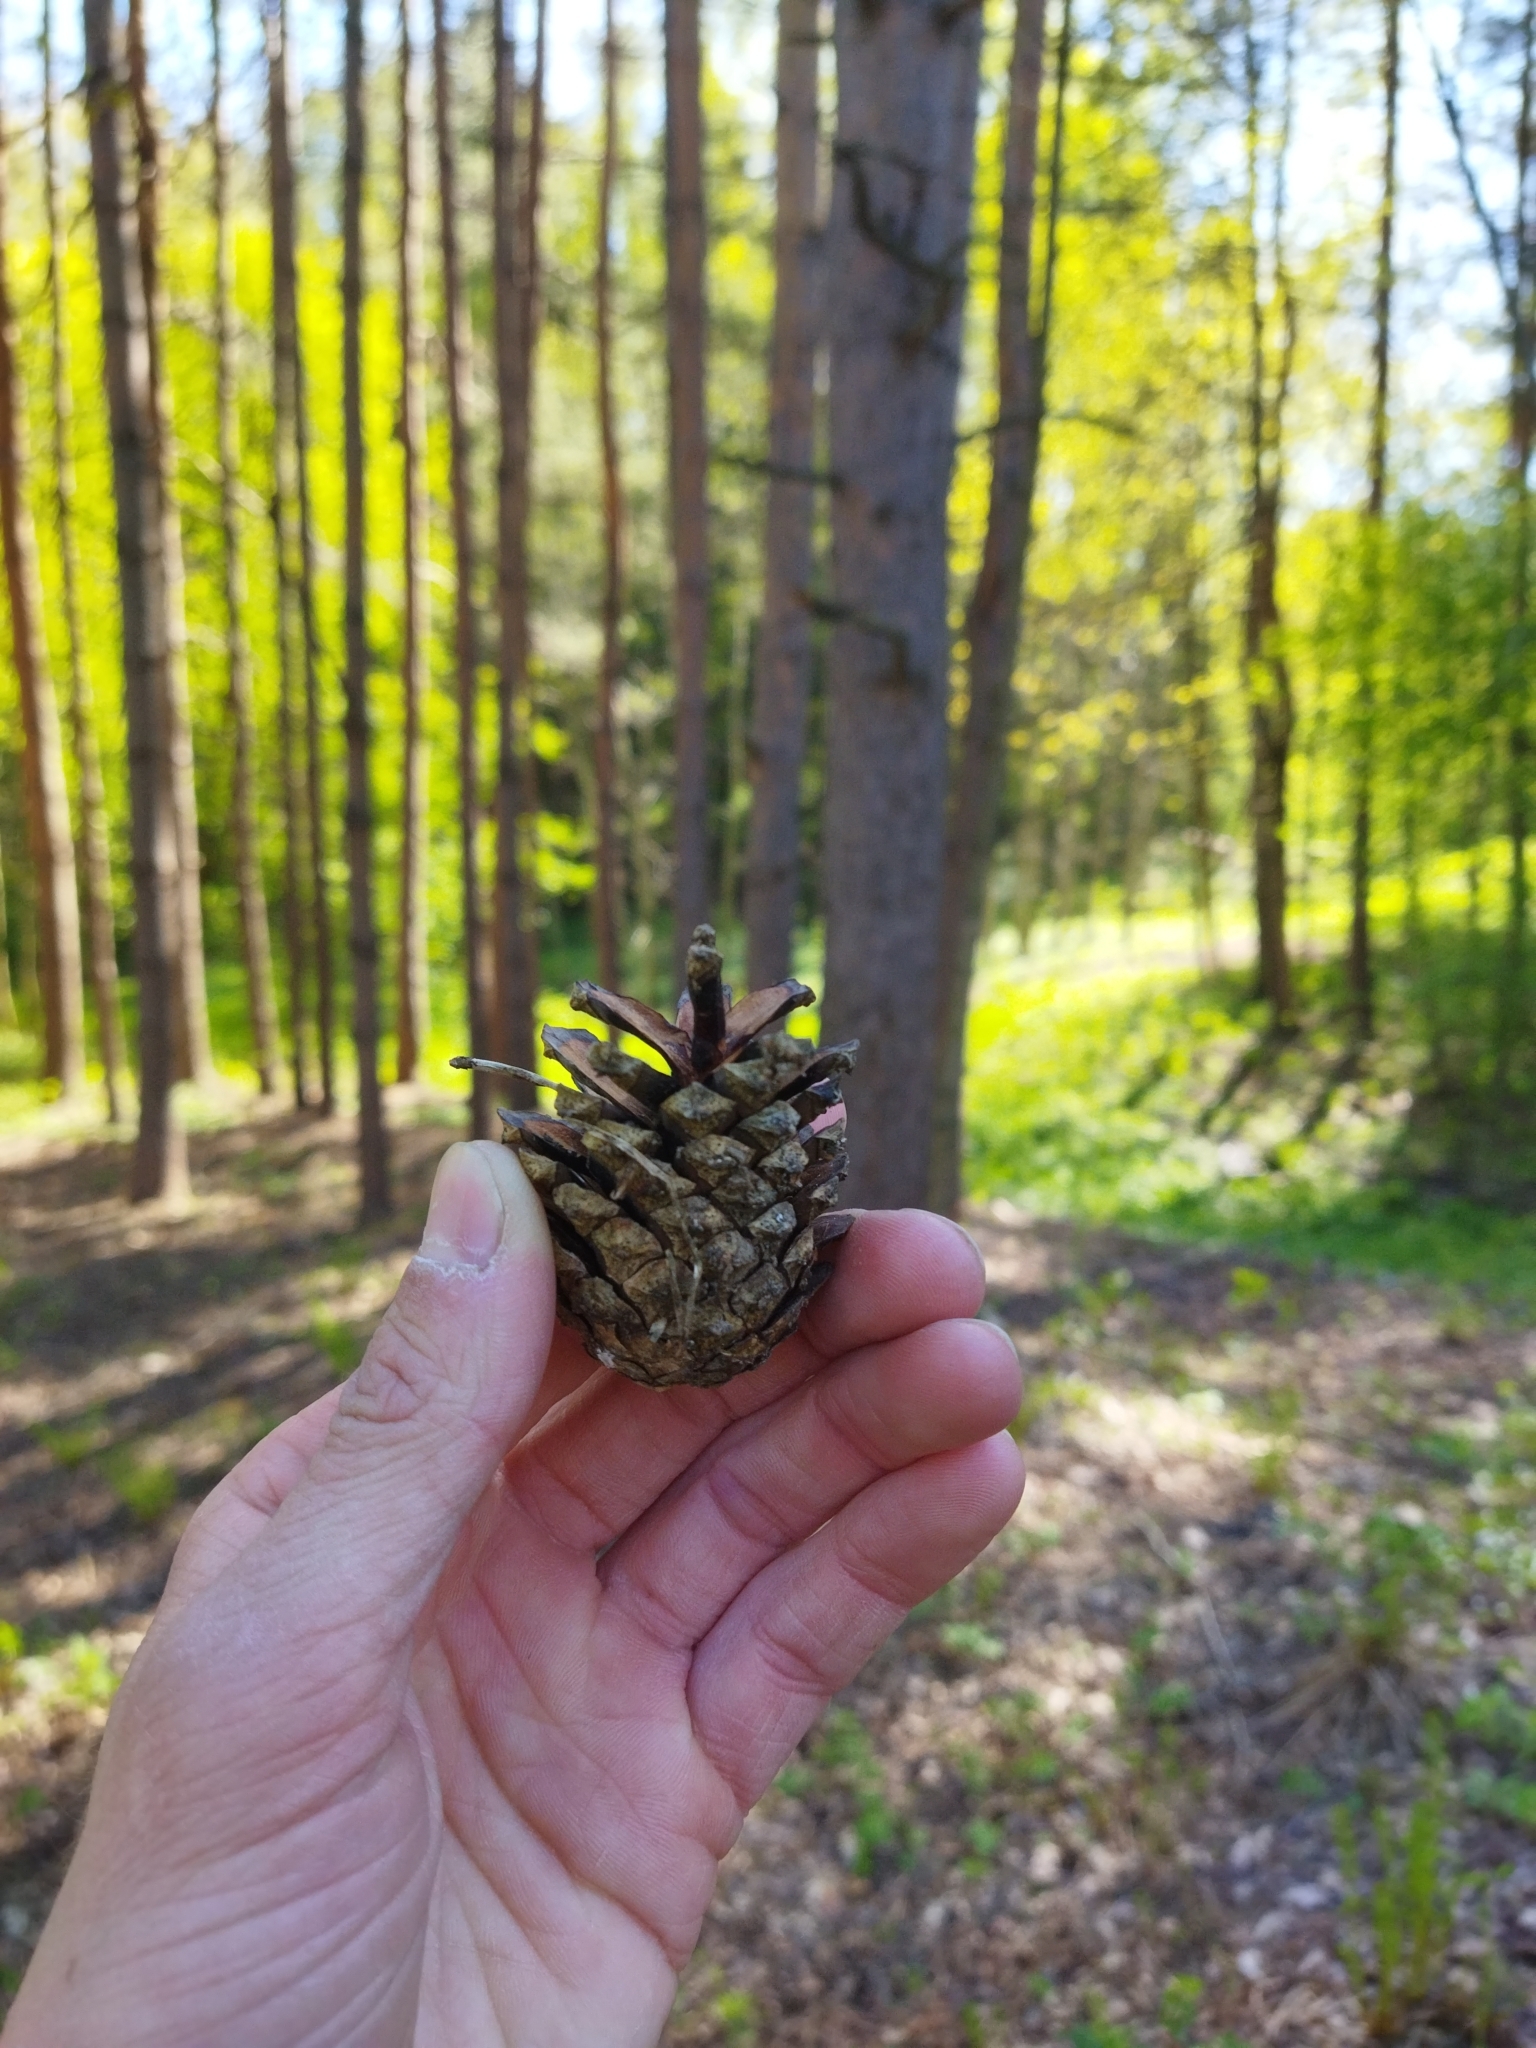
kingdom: Plantae
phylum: Tracheophyta
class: Pinopsida
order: Pinales
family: Pinaceae
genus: Pinus
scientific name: Pinus sylvestris
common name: Scots pine
